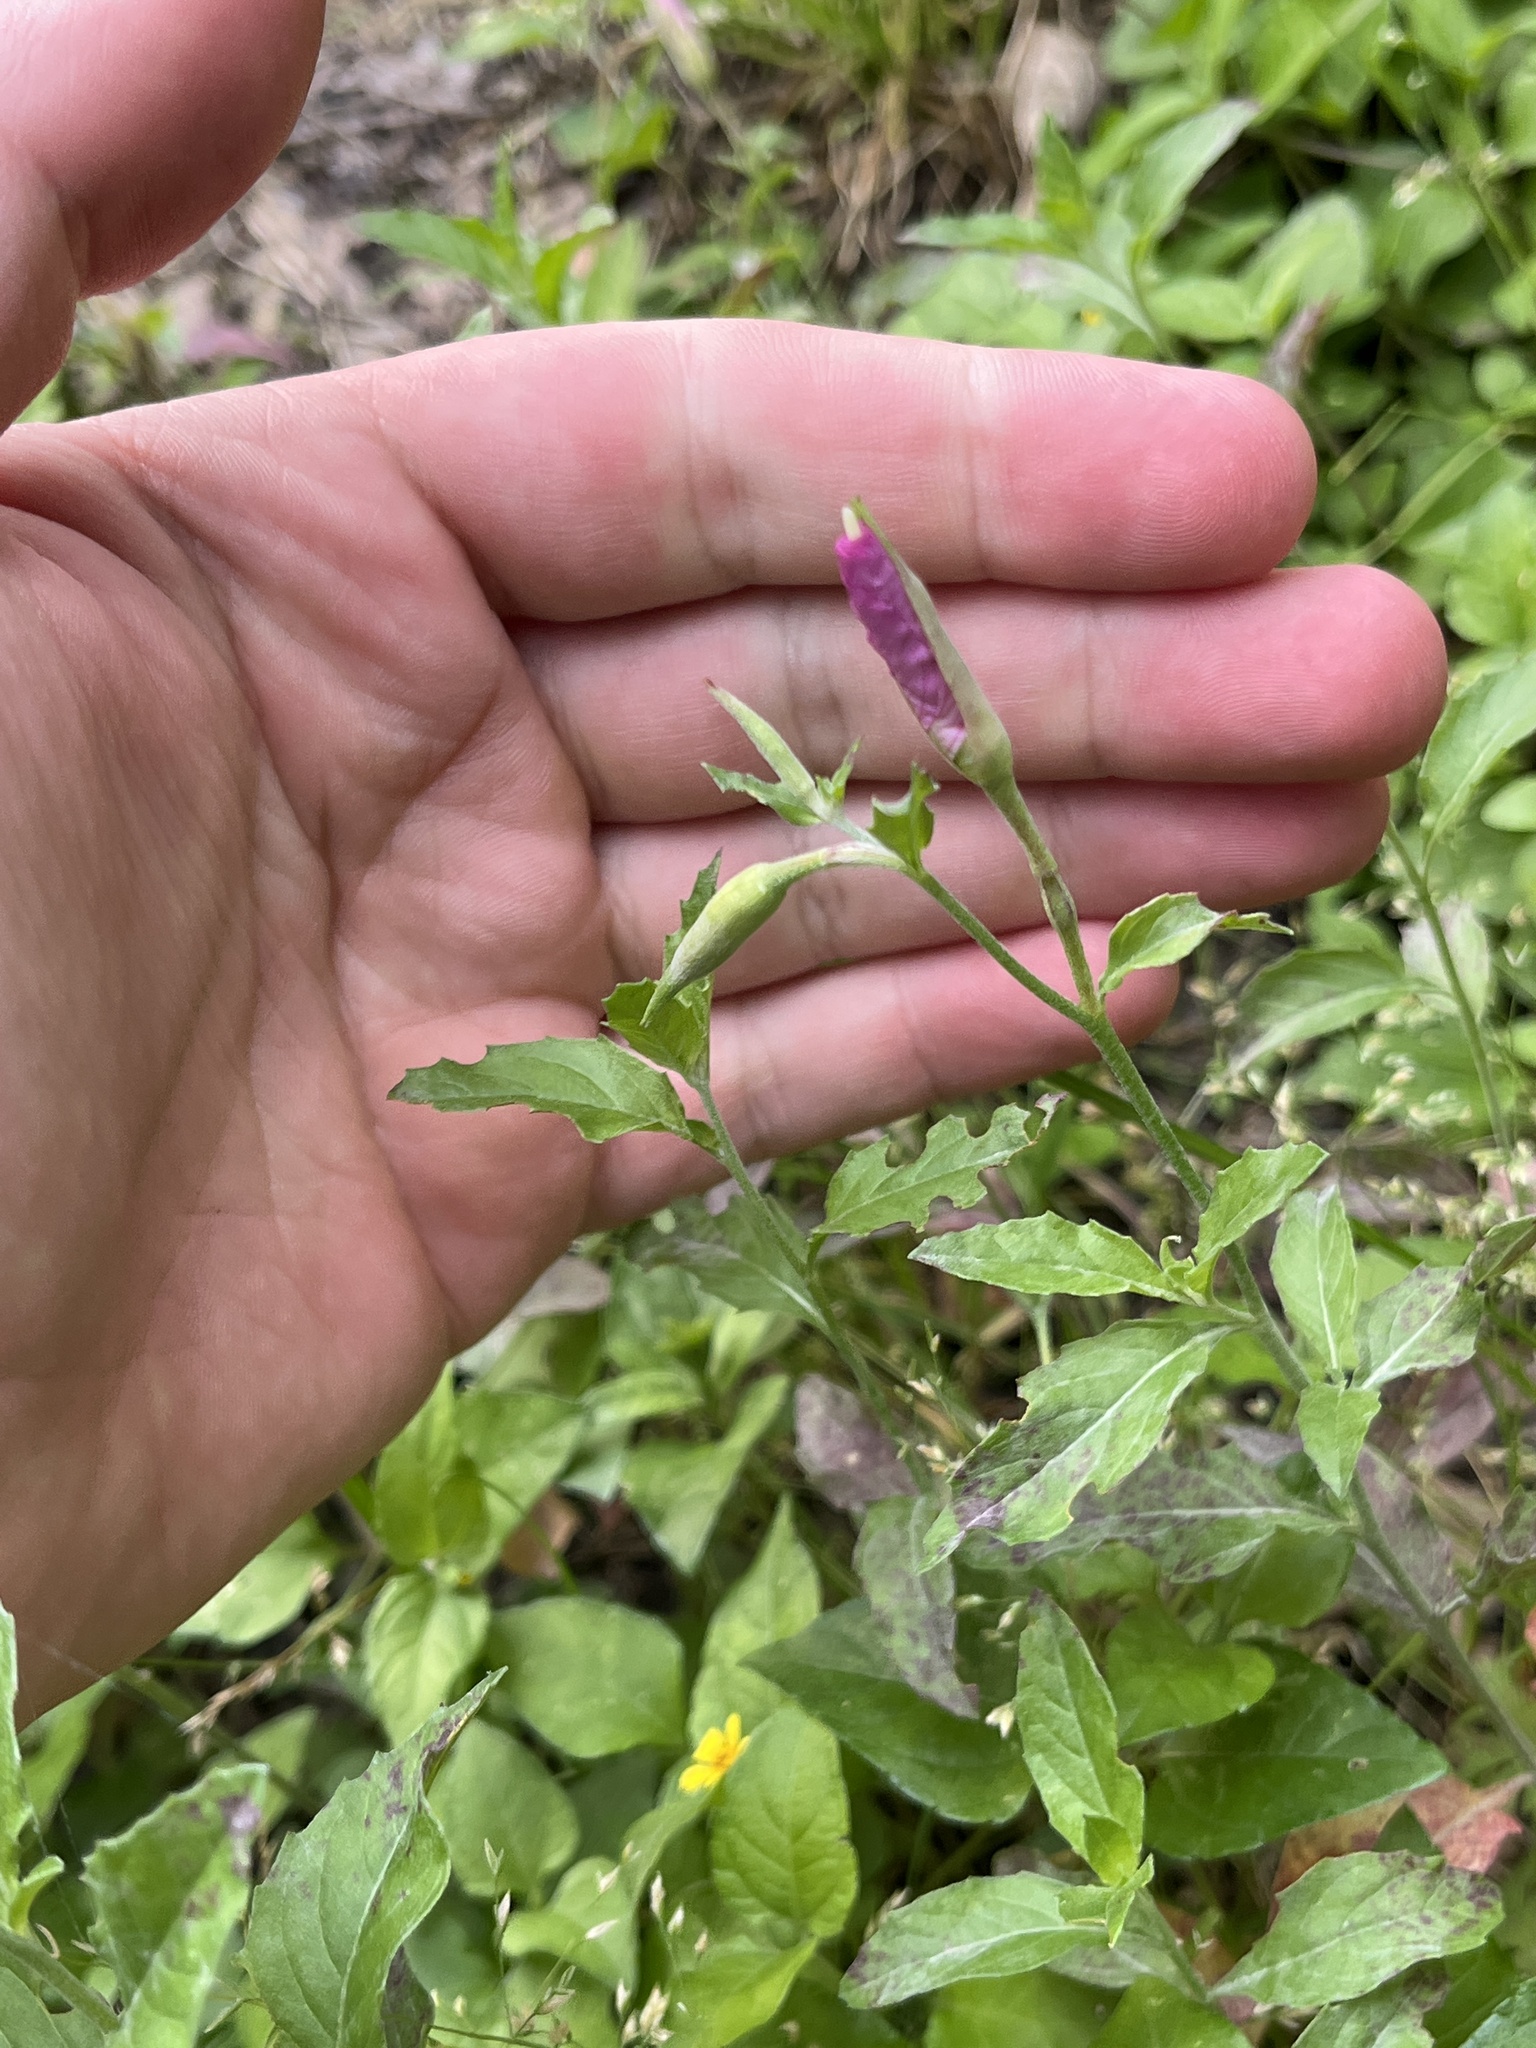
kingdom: Plantae
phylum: Tracheophyta
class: Magnoliopsida
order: Myrtales
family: Onagraceae
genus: Oenothera
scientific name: Oenothera speciosa
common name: White evening-primrose
